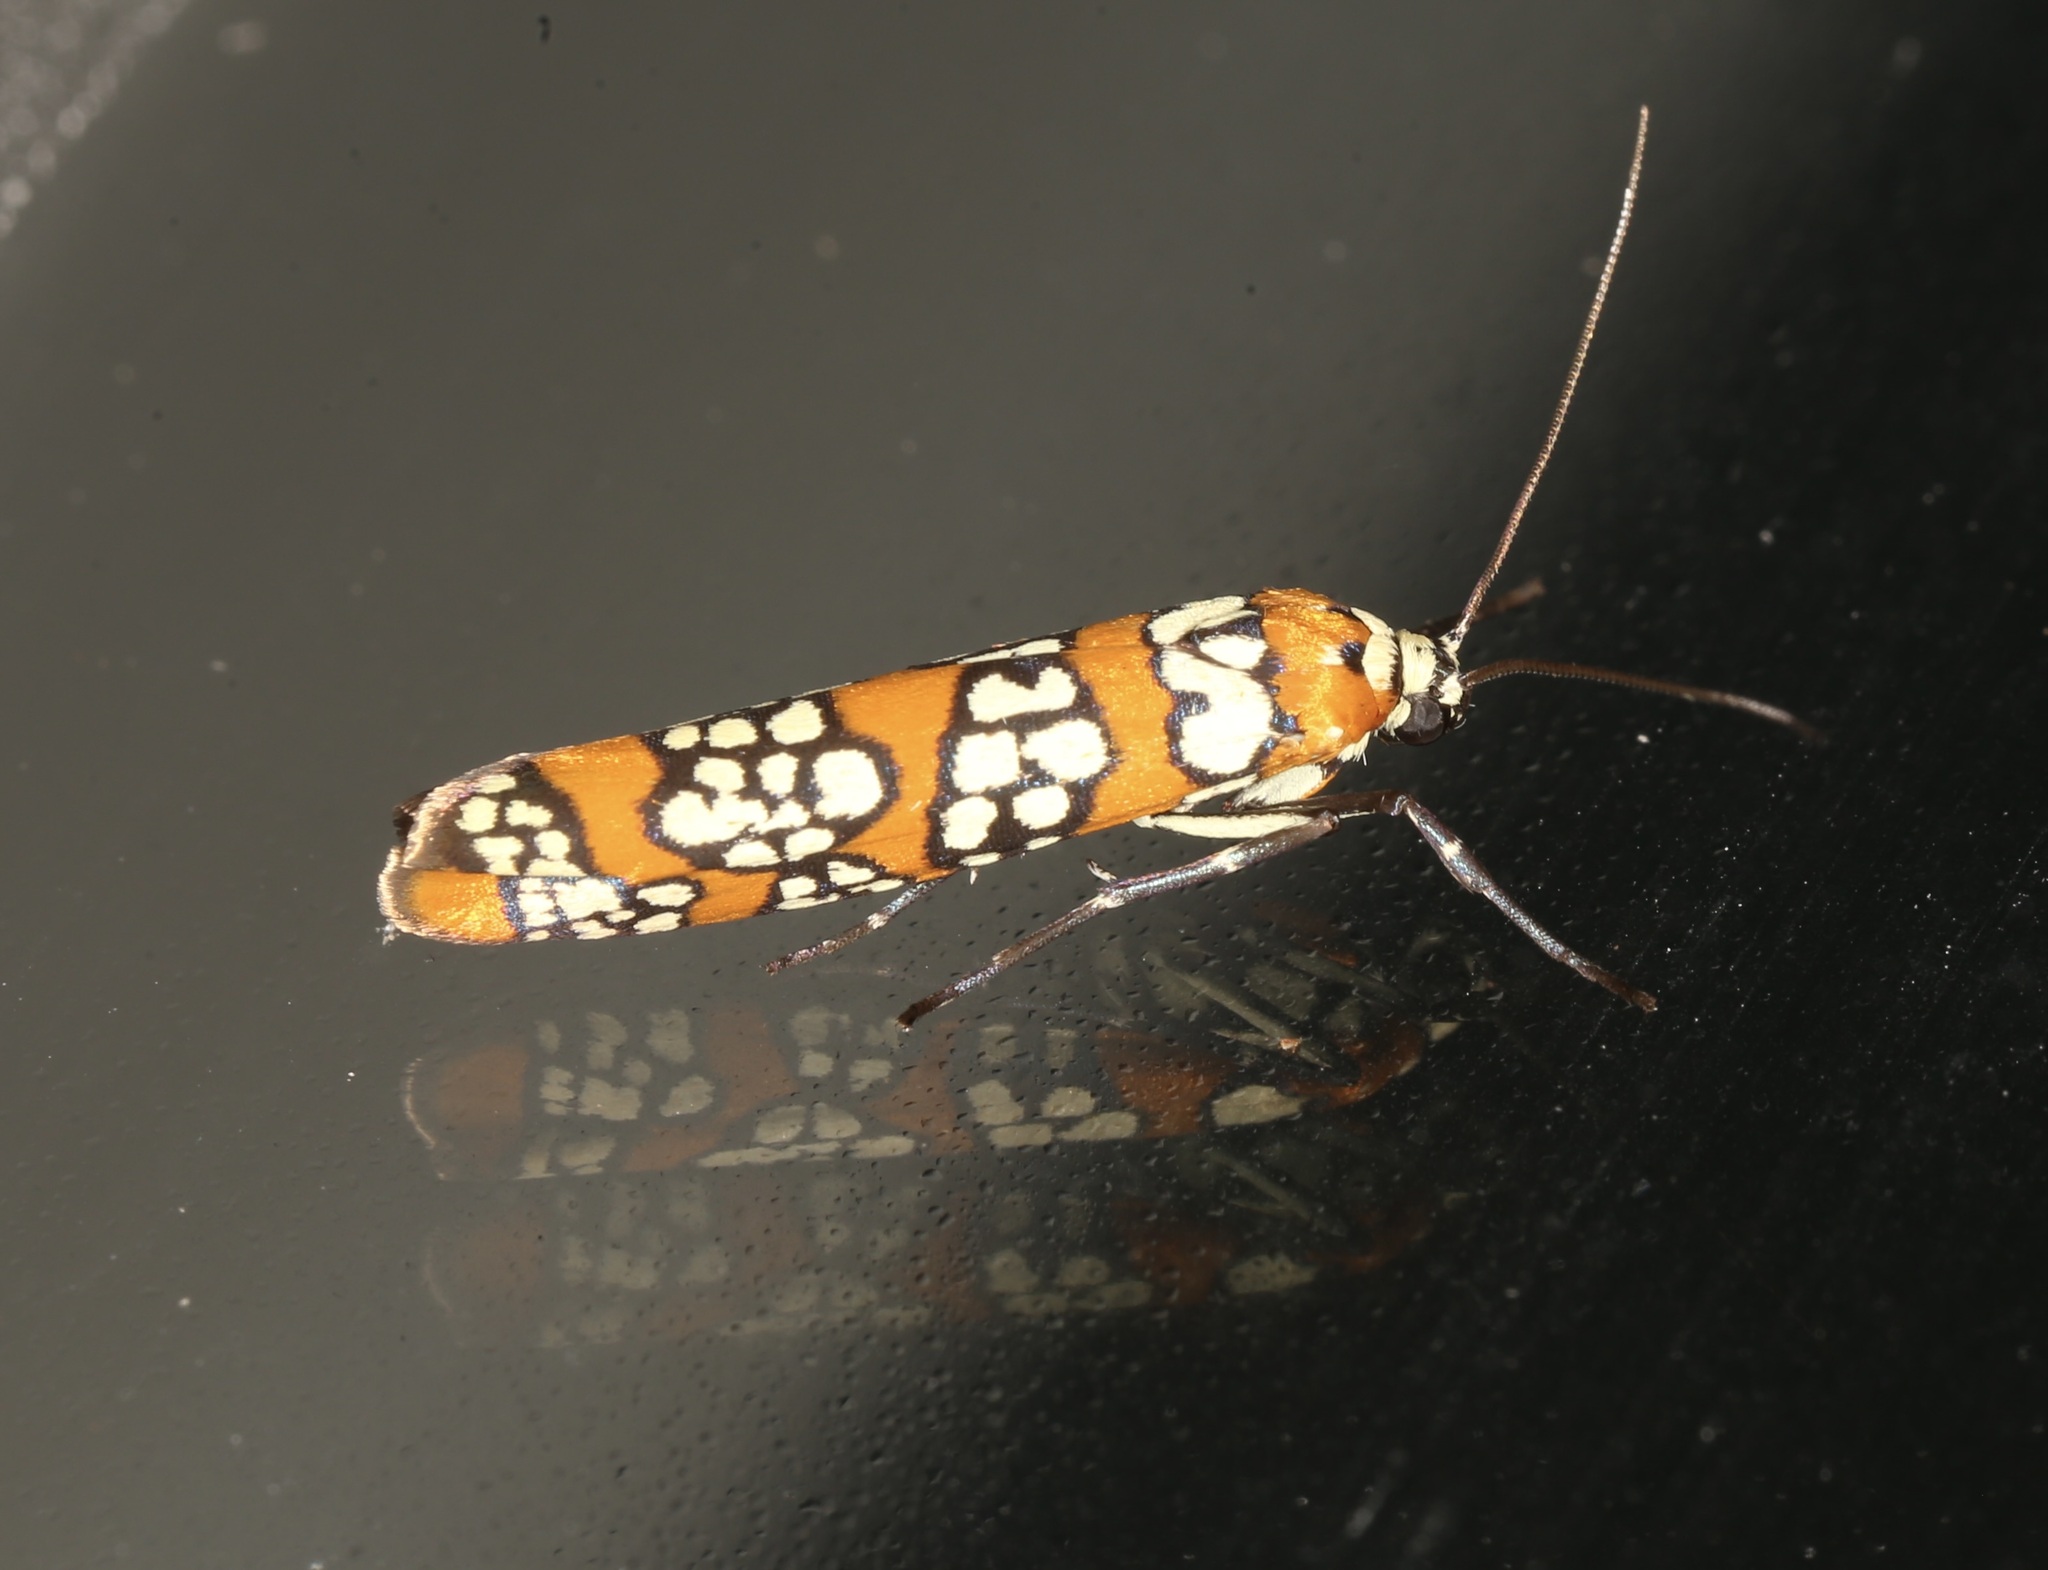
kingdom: Animalia
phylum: Arthropoda
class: Insecta
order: Lepidoptera
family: Attevidae
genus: Atteva
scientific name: Atteva punctella
